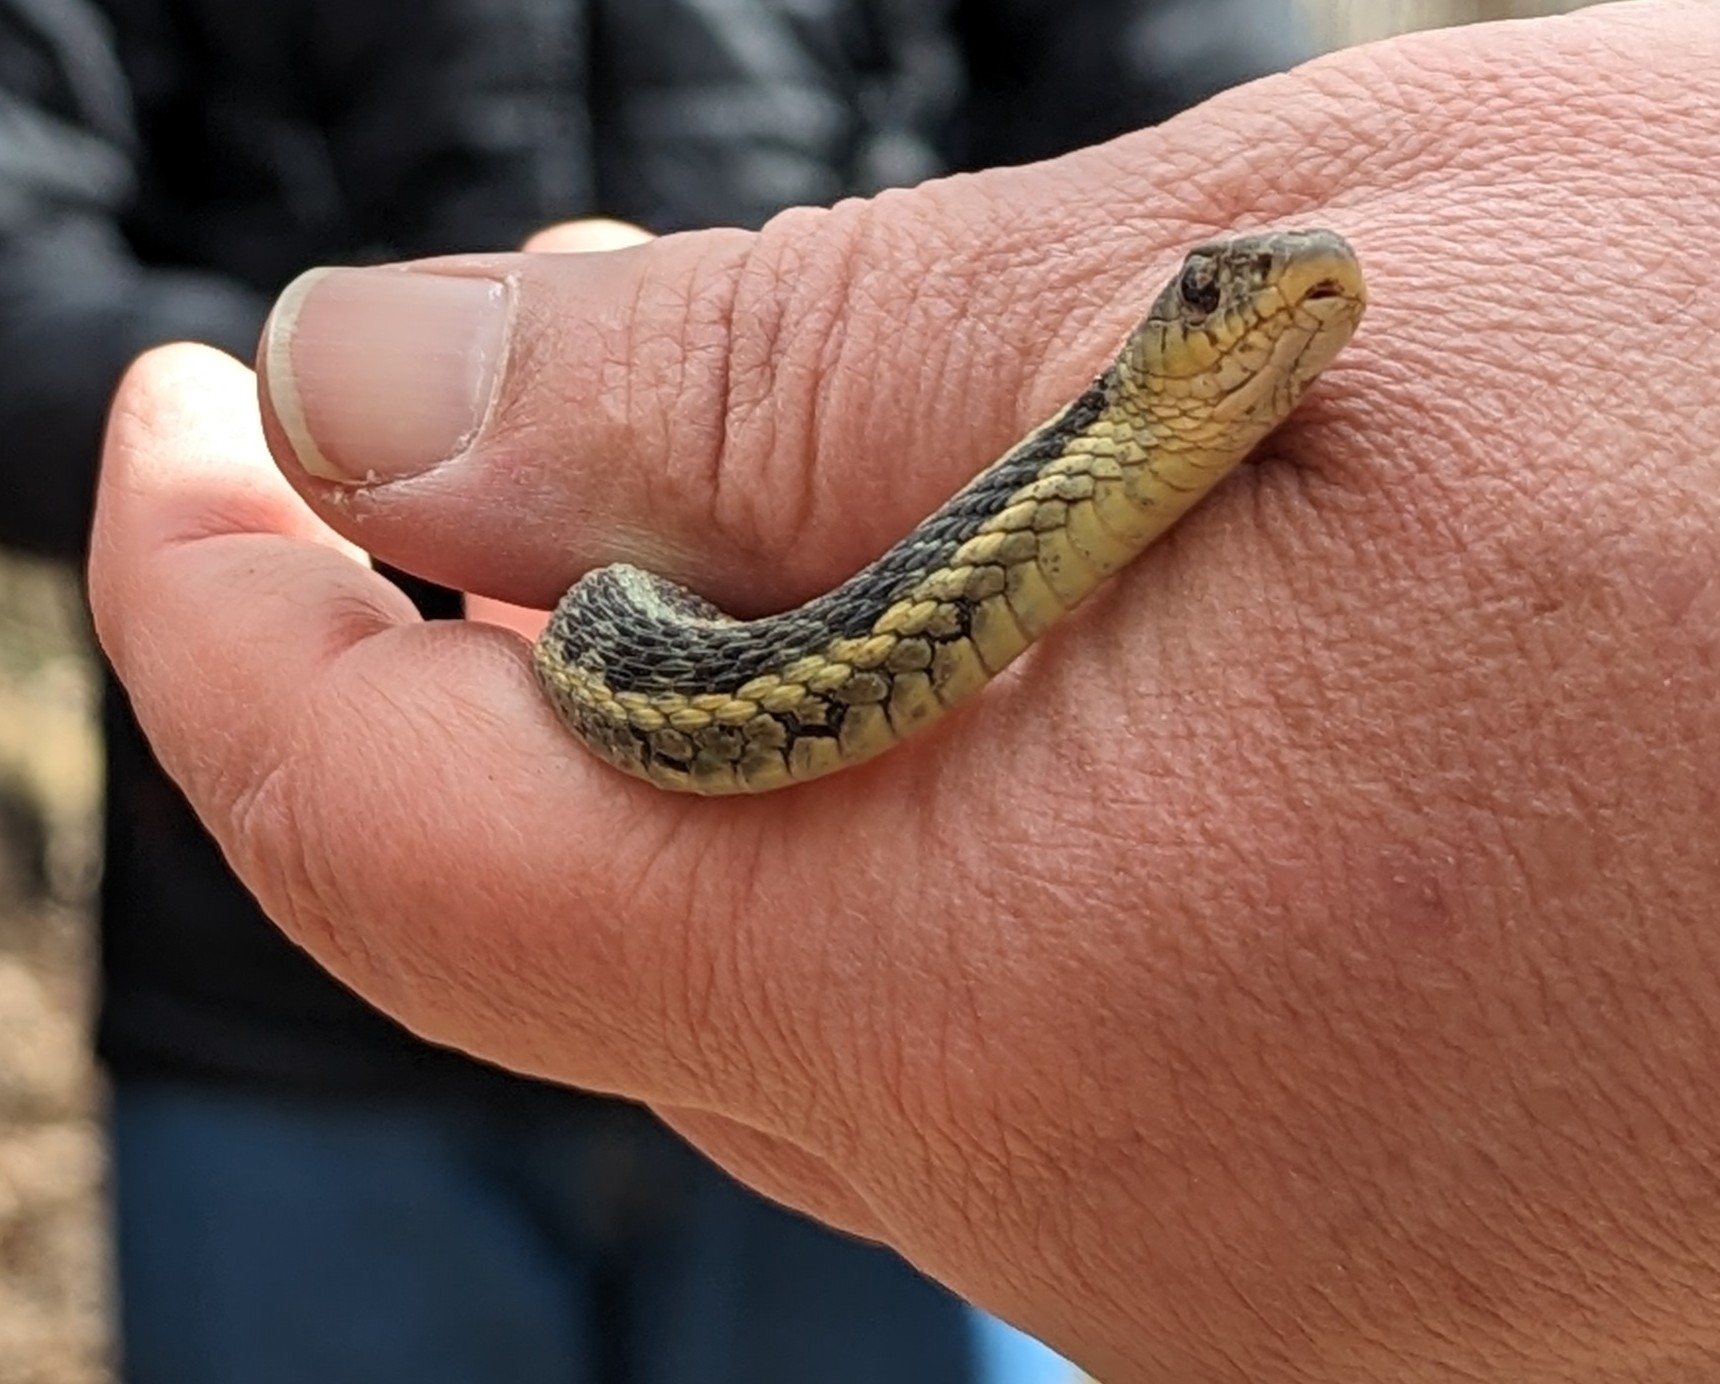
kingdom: Animalia
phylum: Chordata
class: Squamata
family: Colubridae
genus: Thamnophis
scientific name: Thamnophis sirtalis
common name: Common garter snake
